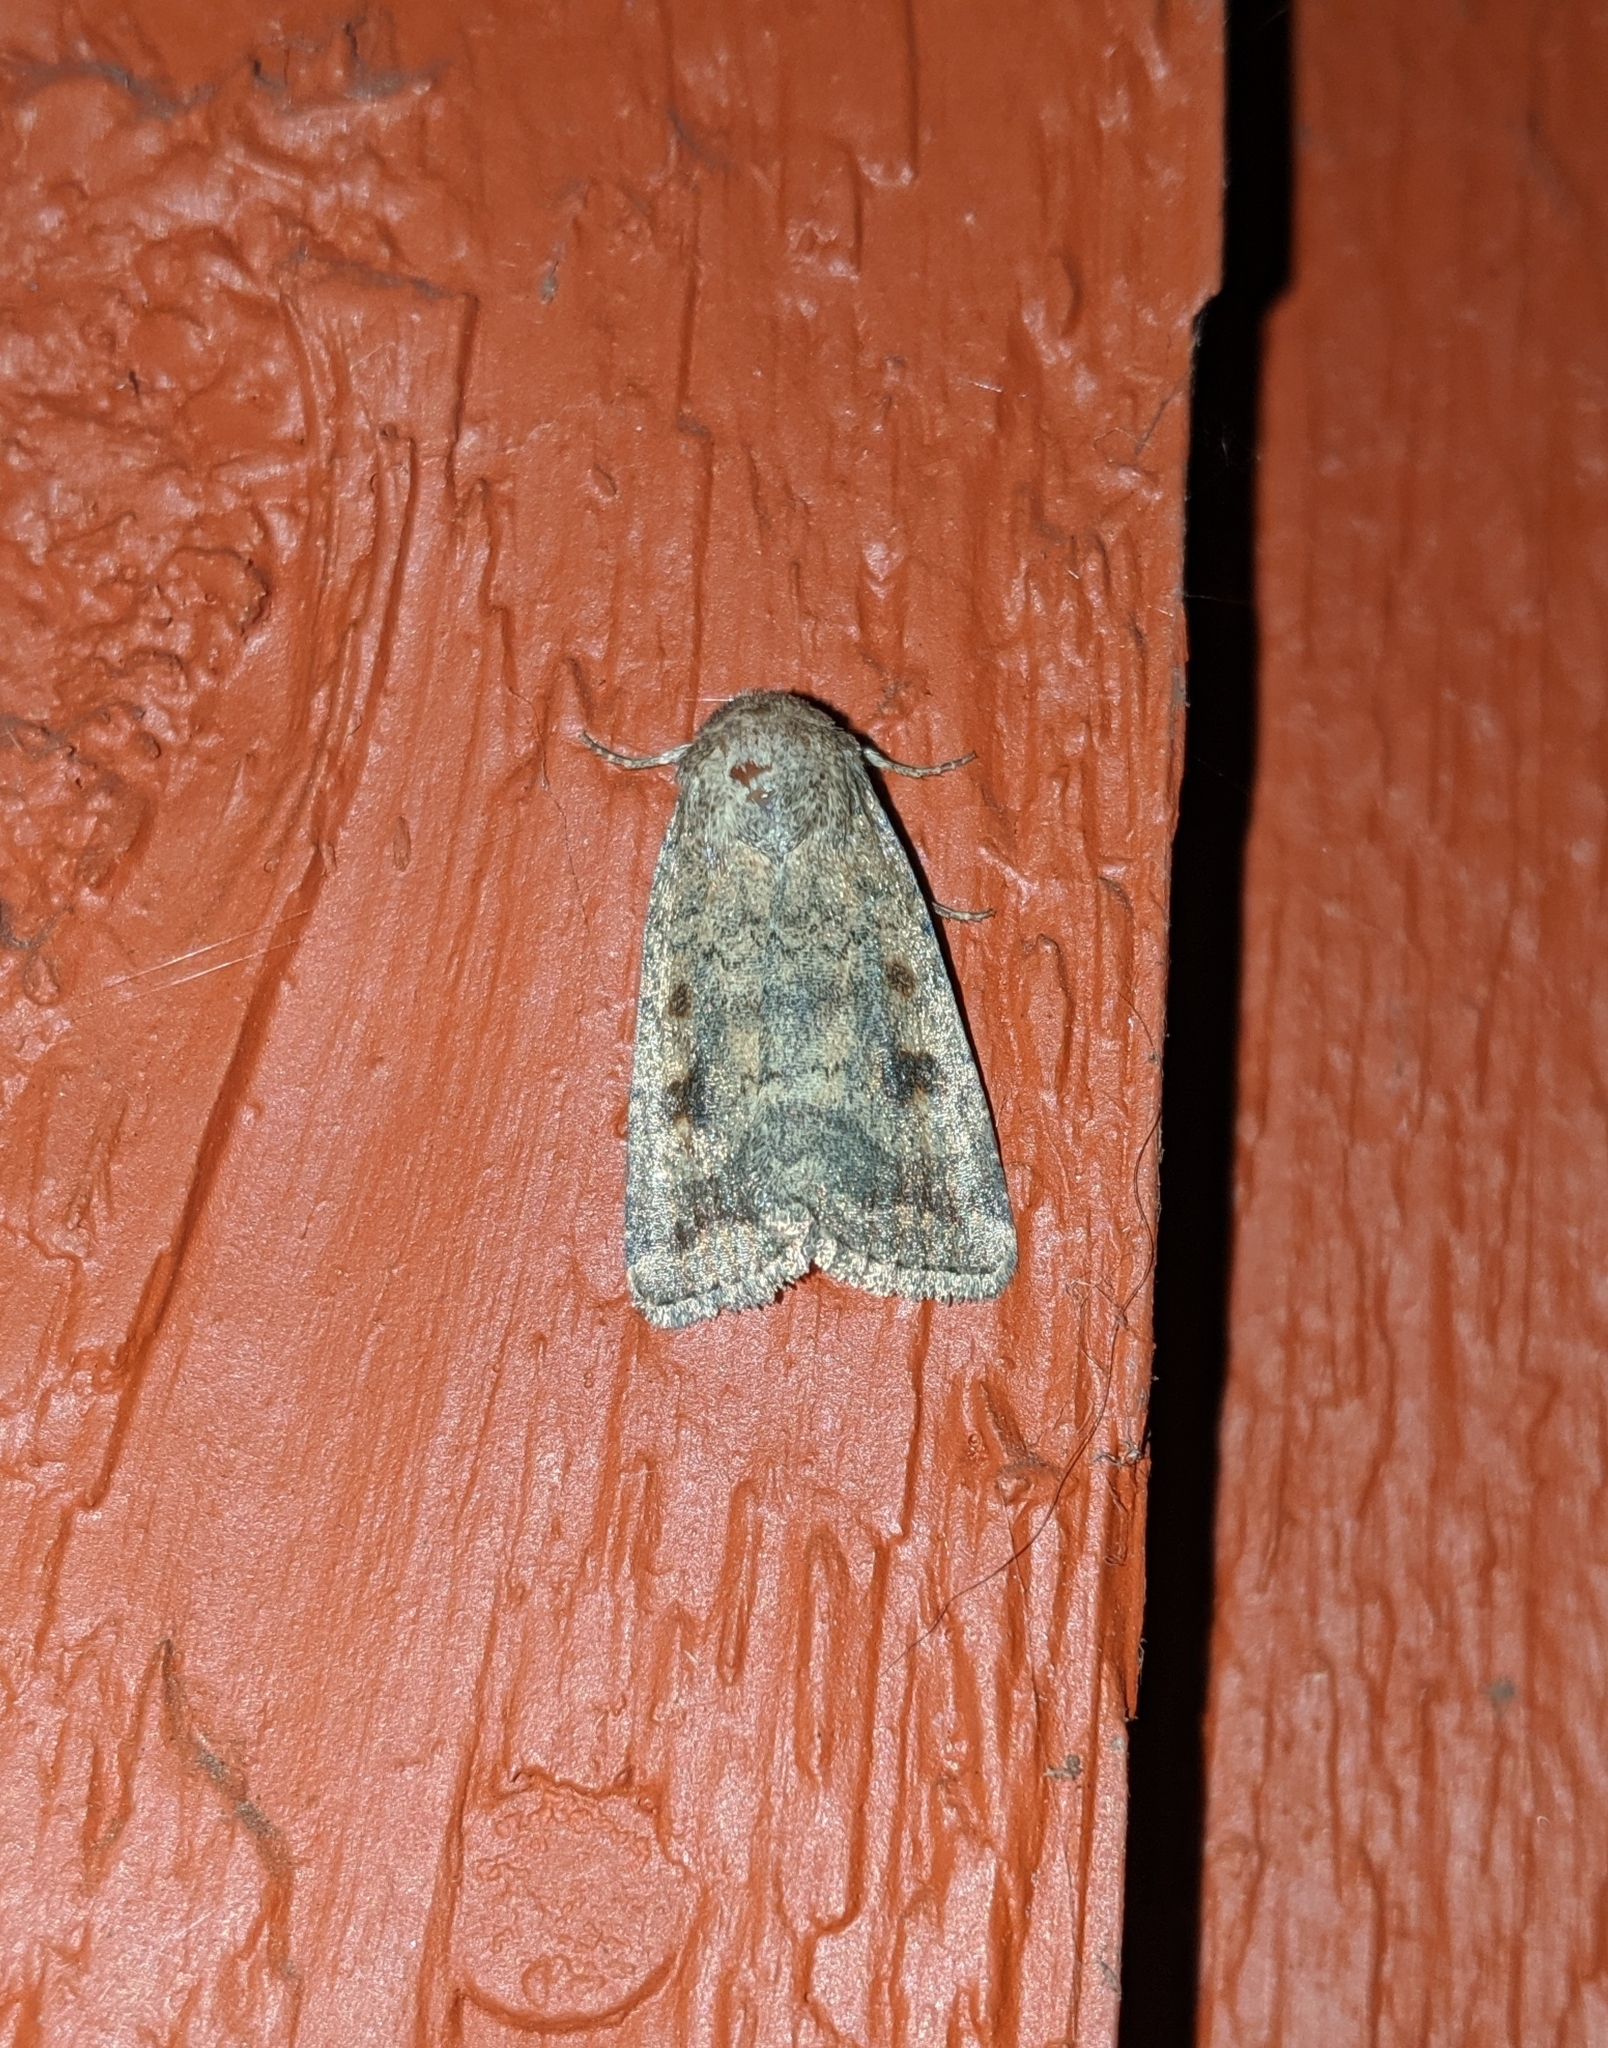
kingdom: Animalia
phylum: Arthropoda
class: Insecta
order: Lepidoptera
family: Noctuidae
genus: Caradrina
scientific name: Caradrina morpheus
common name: Mottled rustic
